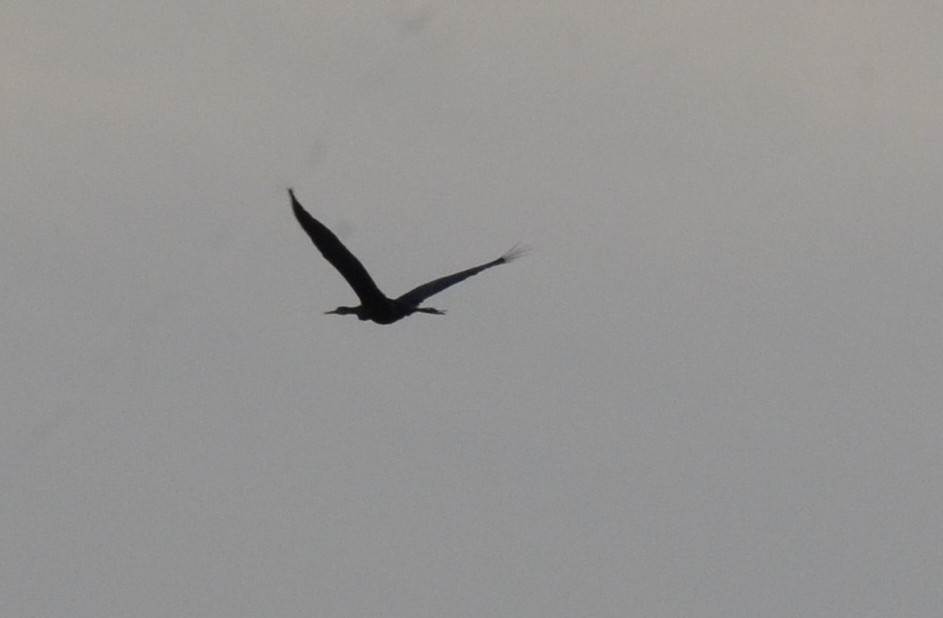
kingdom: Animalia
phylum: Chordata
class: Aves
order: Suliformes
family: Anhingidae
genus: Anhinga
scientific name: Anhinga melanogaster
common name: Oriental darter
